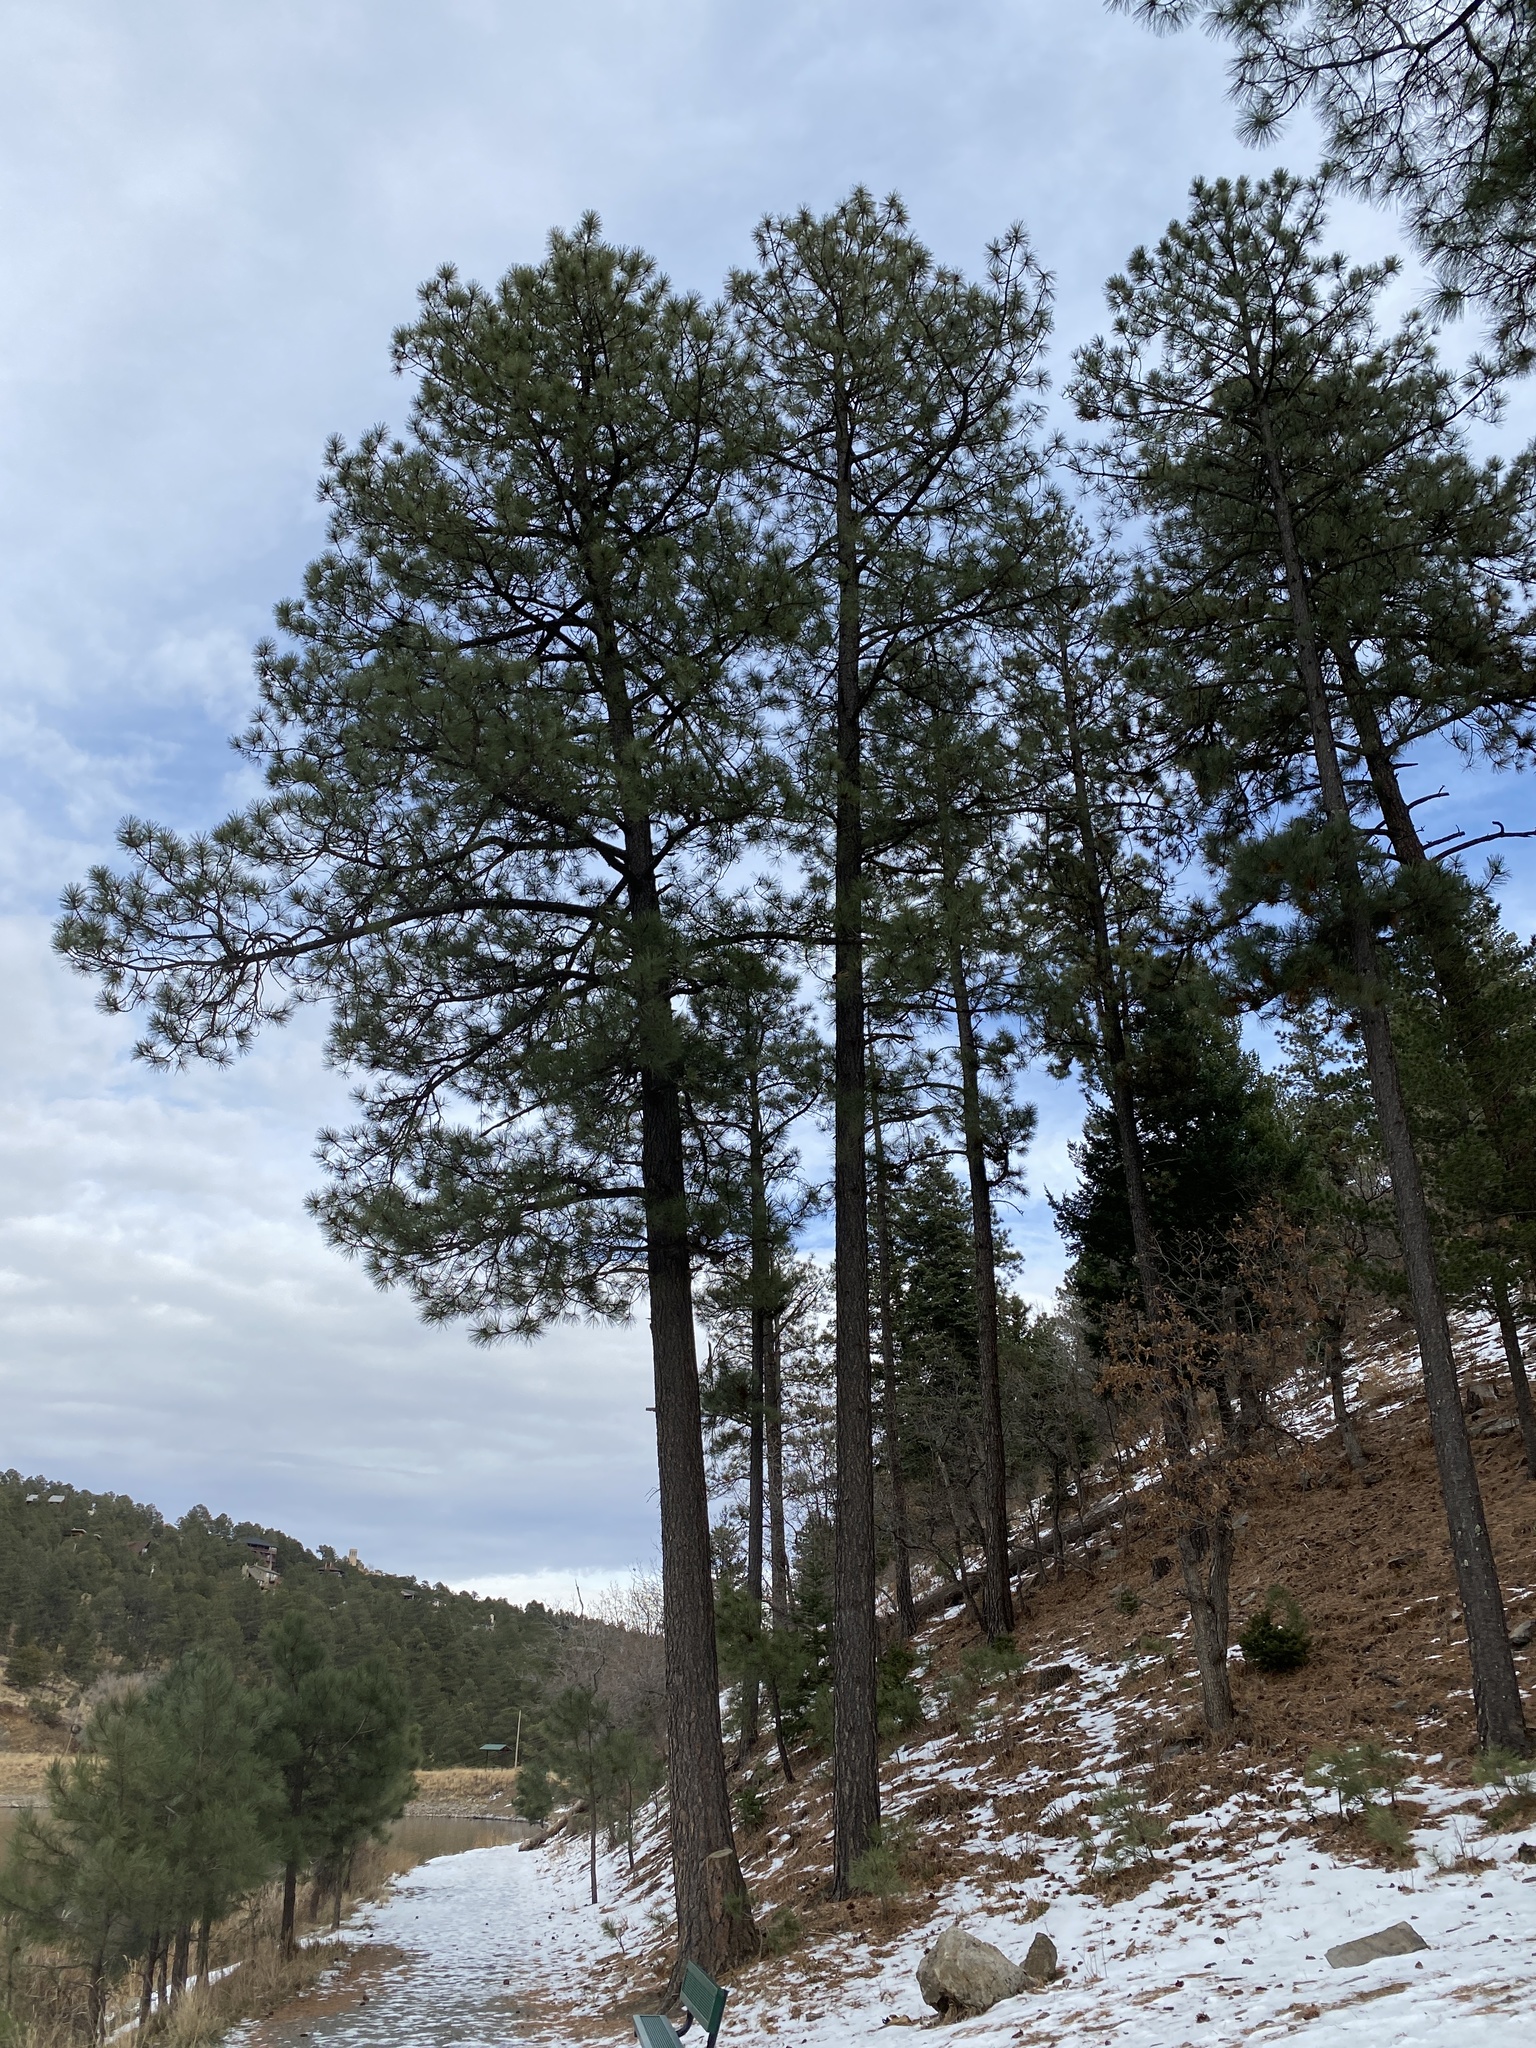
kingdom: Plantae
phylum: Tracheophyta
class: Pinopsida
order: Pinales
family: Pinaceae
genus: Pinus
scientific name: Pinus ponderosa
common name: Western yellow-pine
